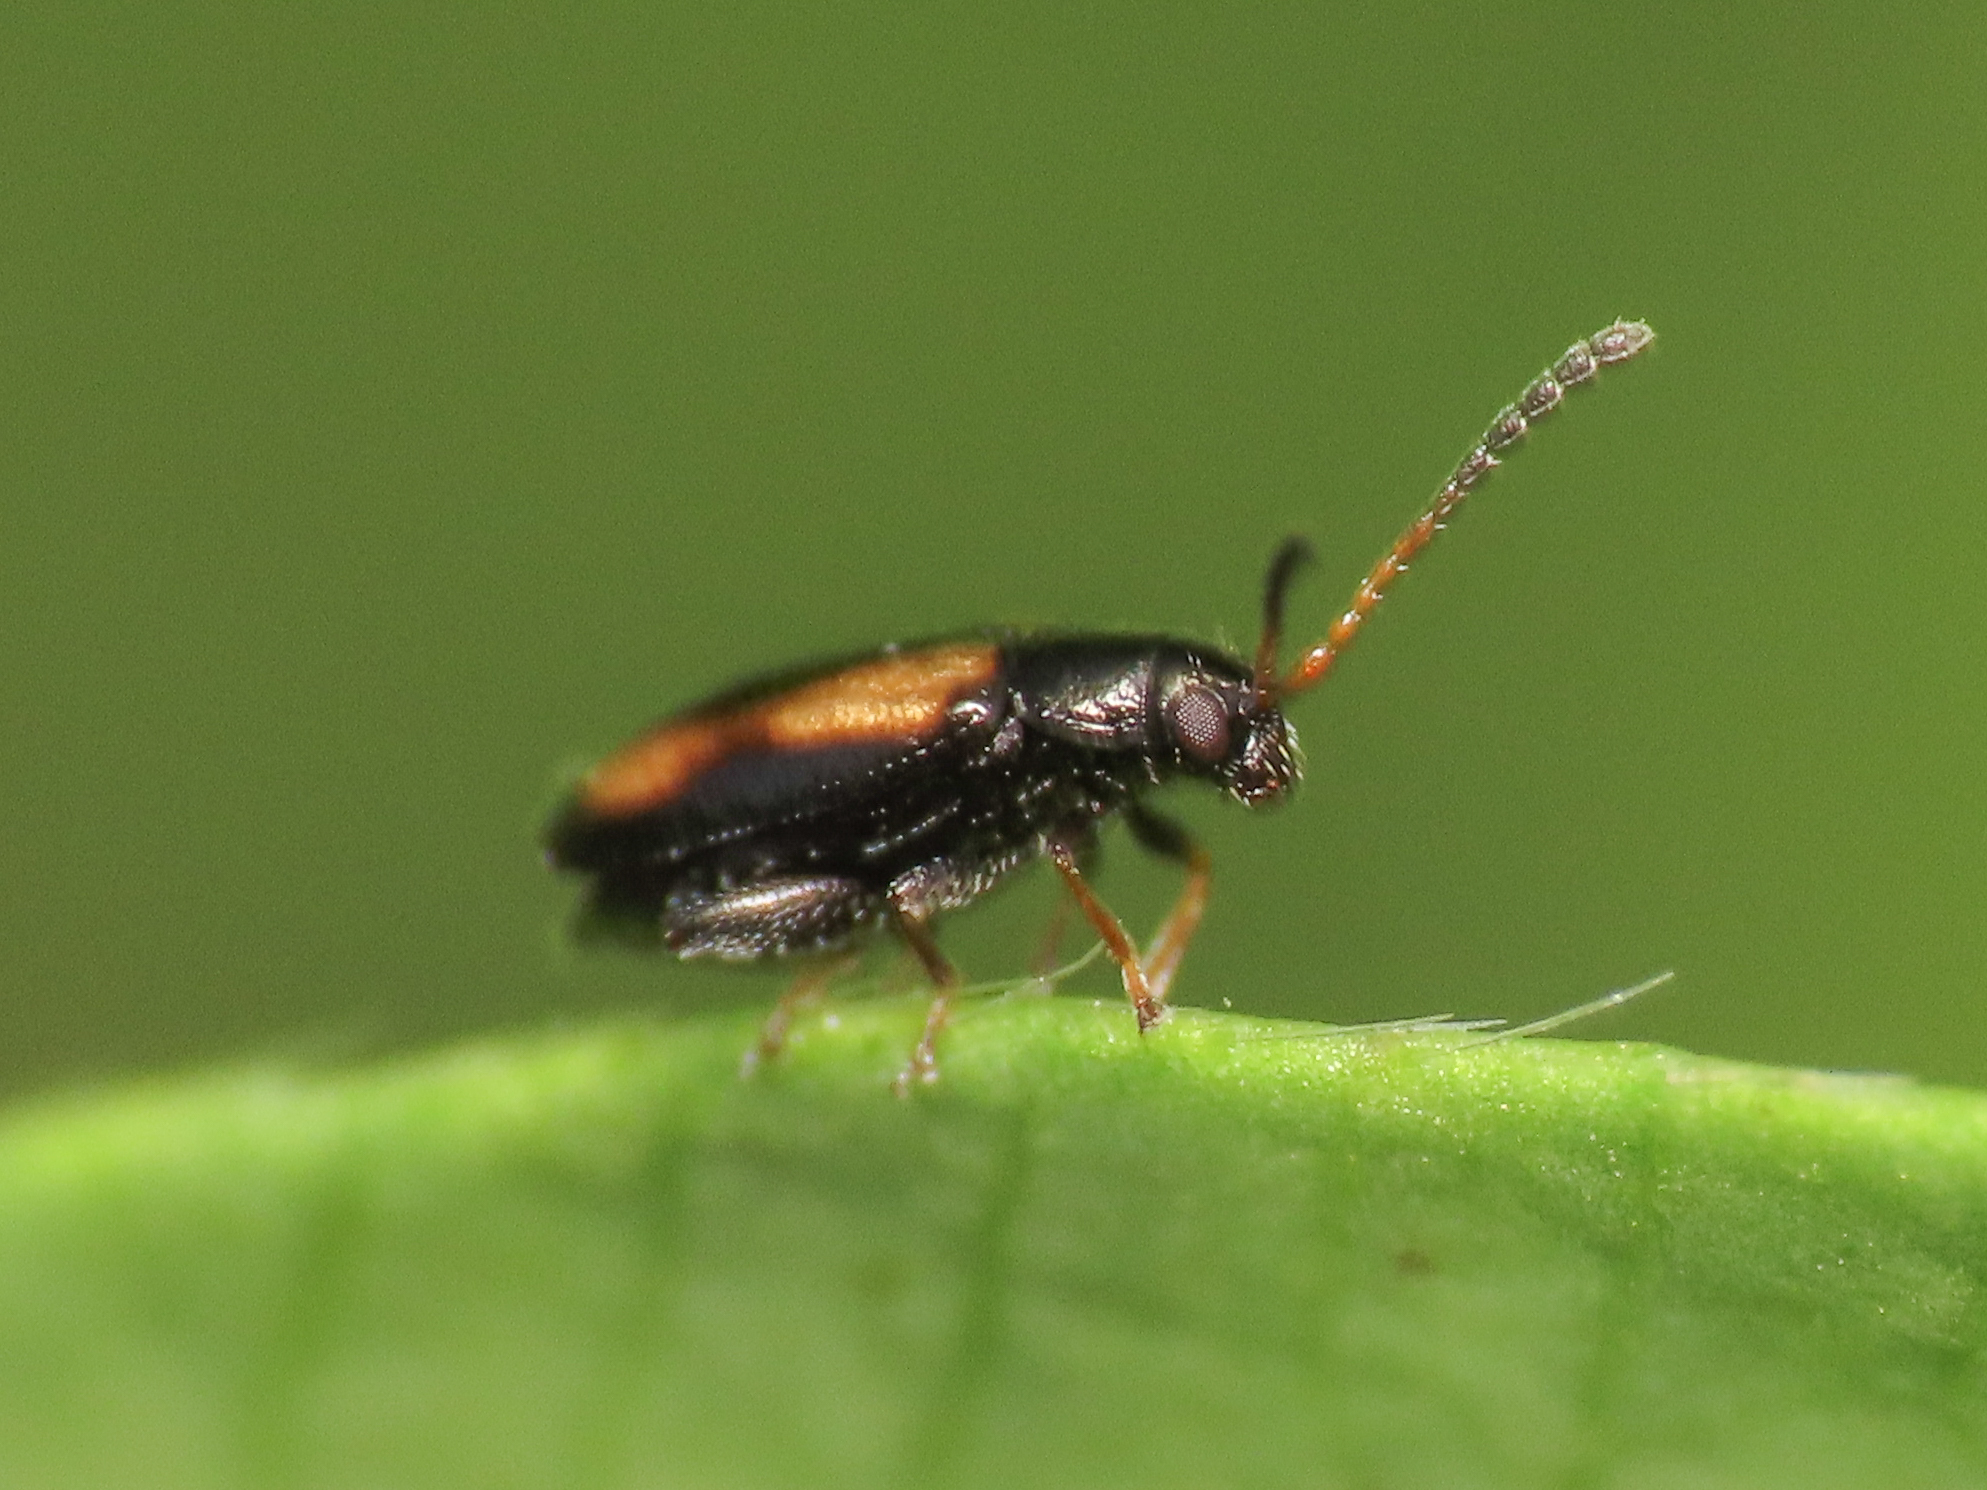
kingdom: Animalia
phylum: Arthropoda
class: Insecta
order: Coleoptera
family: Chrysomelidae
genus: Phyllotreta
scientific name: Phyllotreta variipennis
